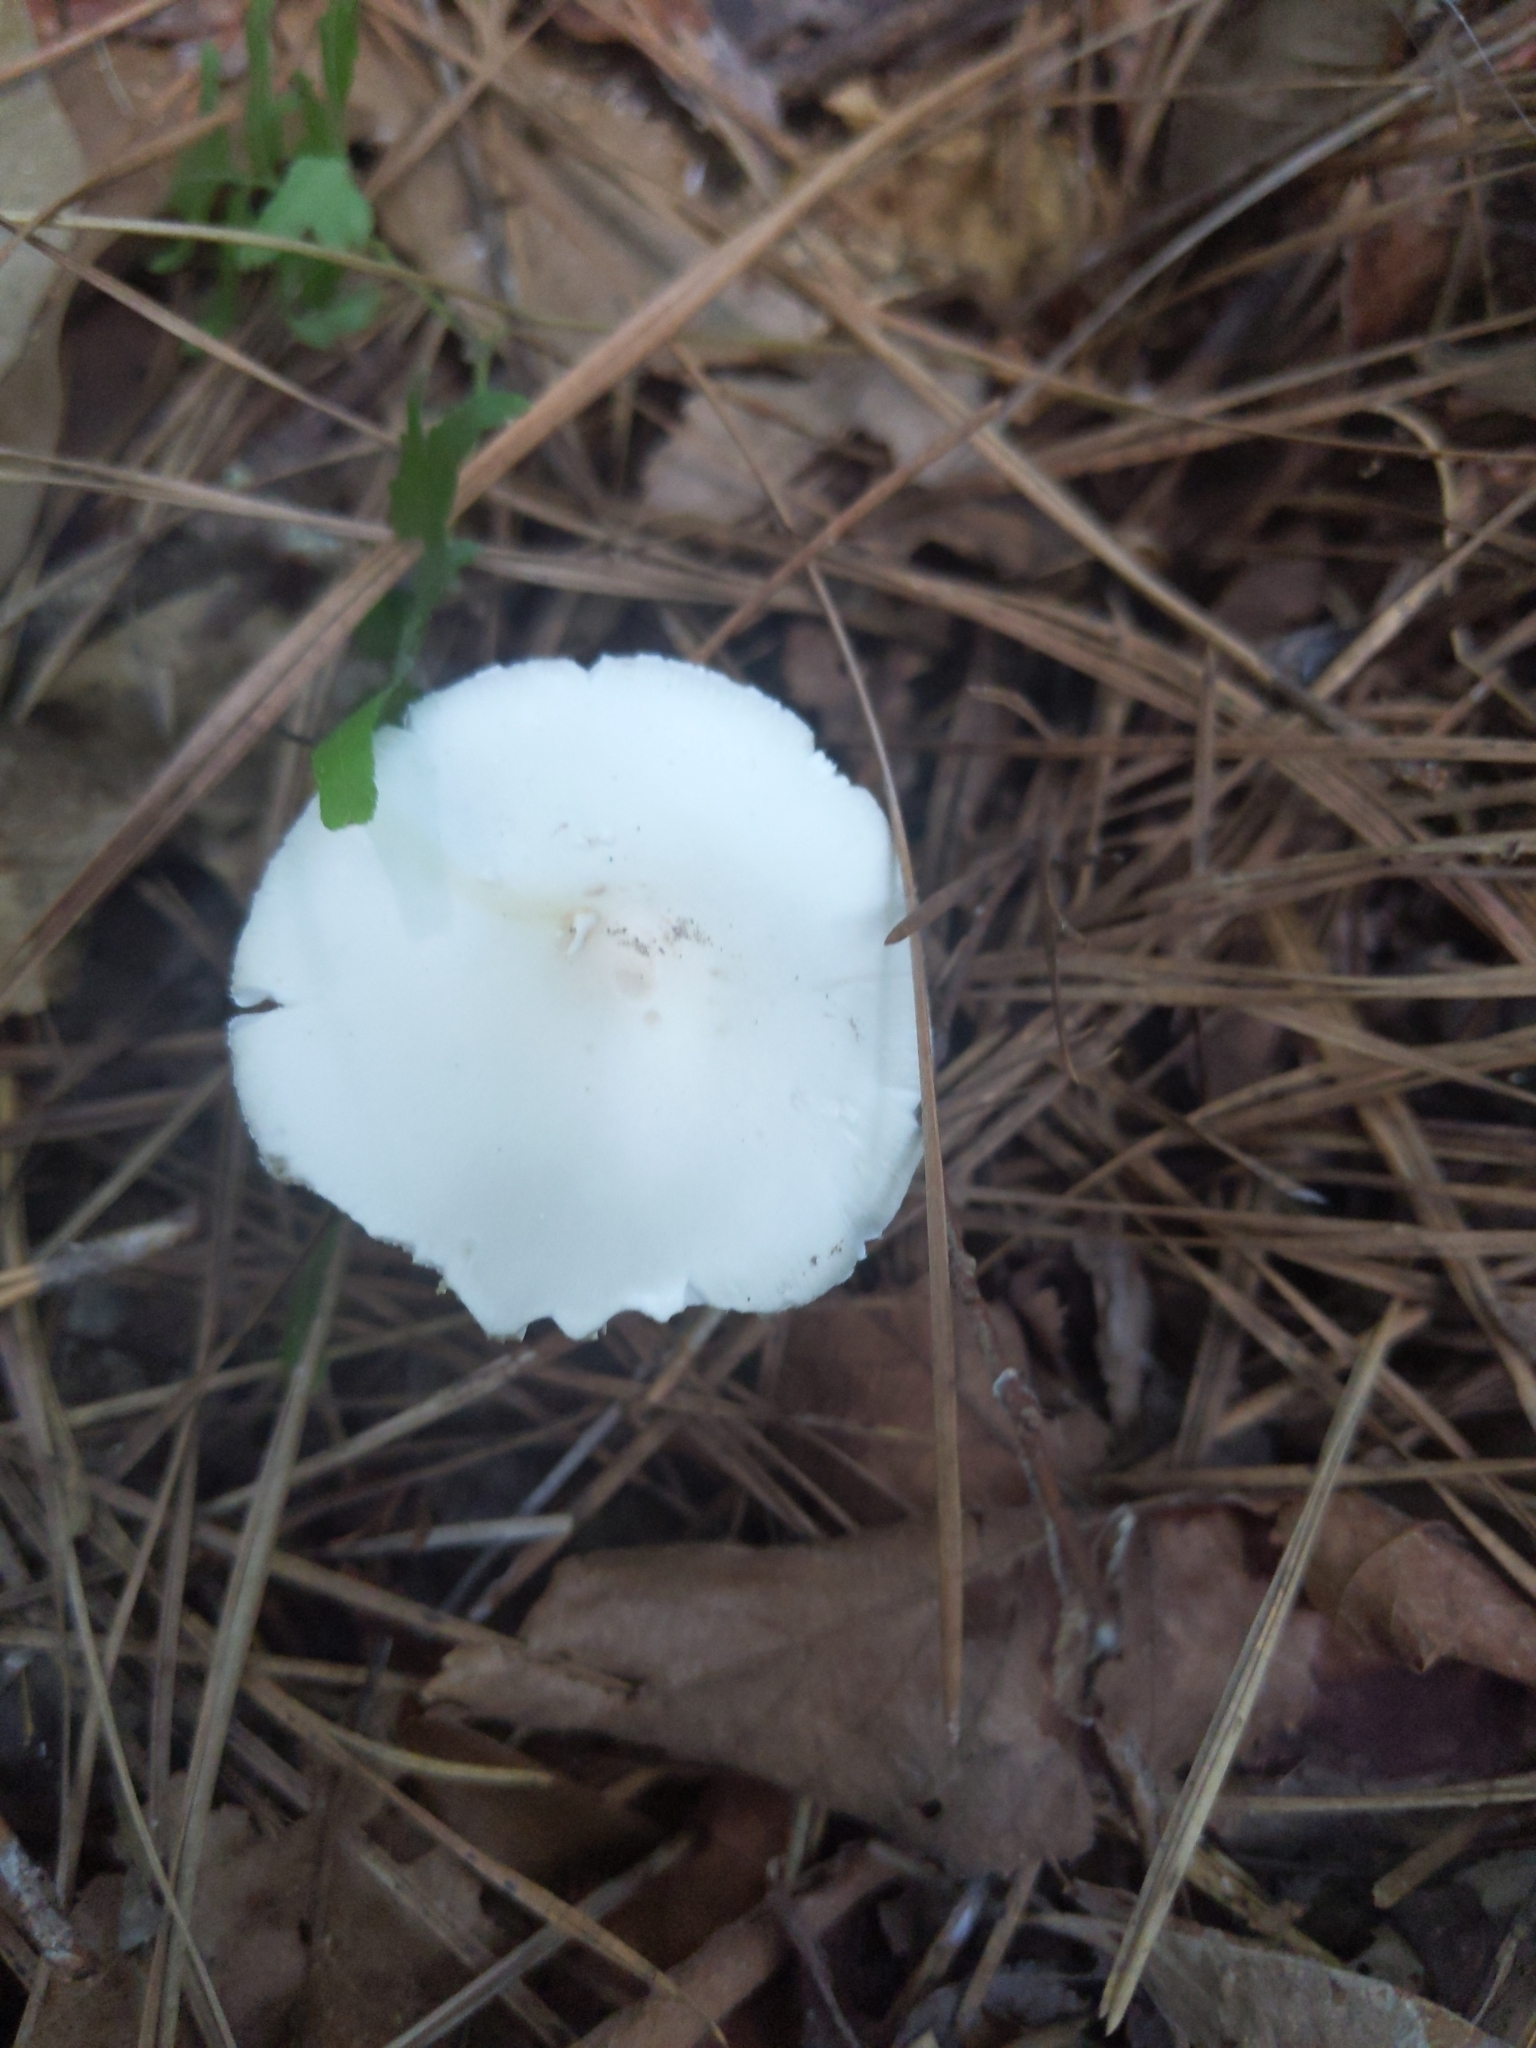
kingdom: Fungi
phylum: Basidiomycota
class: Agaricomycetes
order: Agaricales
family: Amanitaceae
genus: Amanita
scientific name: Amanita bisporigera
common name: Eastern north american destroying angel
